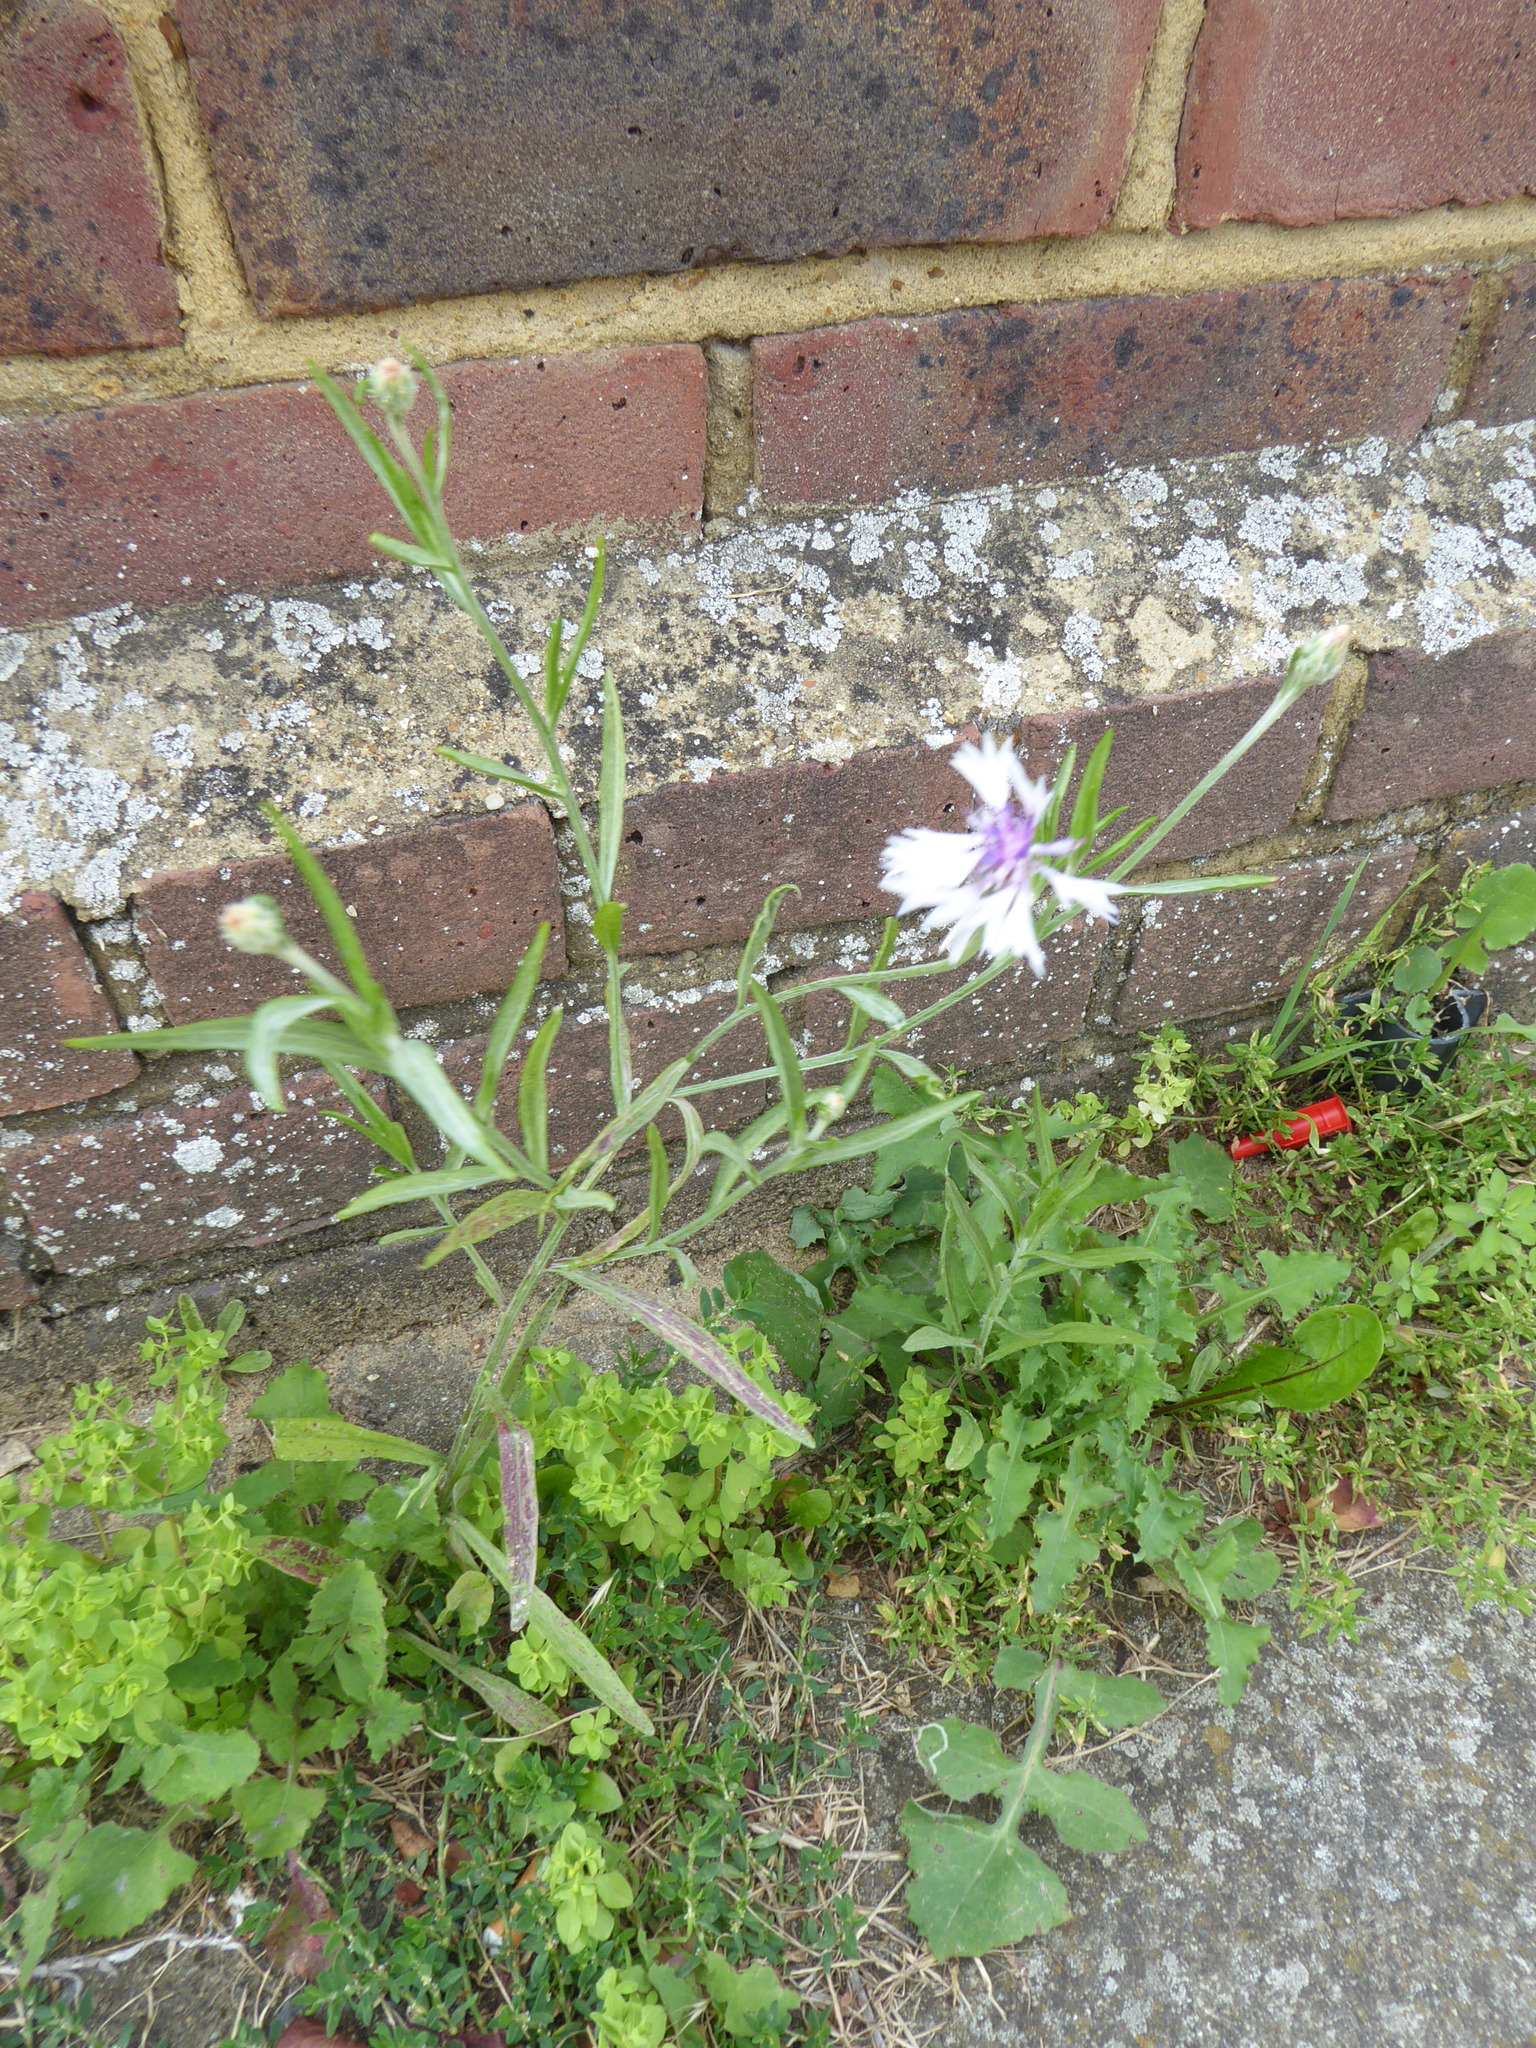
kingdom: Plantae
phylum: Tracheophyta
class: Magnoliopsida
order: Asterales
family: Asteraceae
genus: Centaurea
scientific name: Centaurea cyanus
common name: Cornflower
